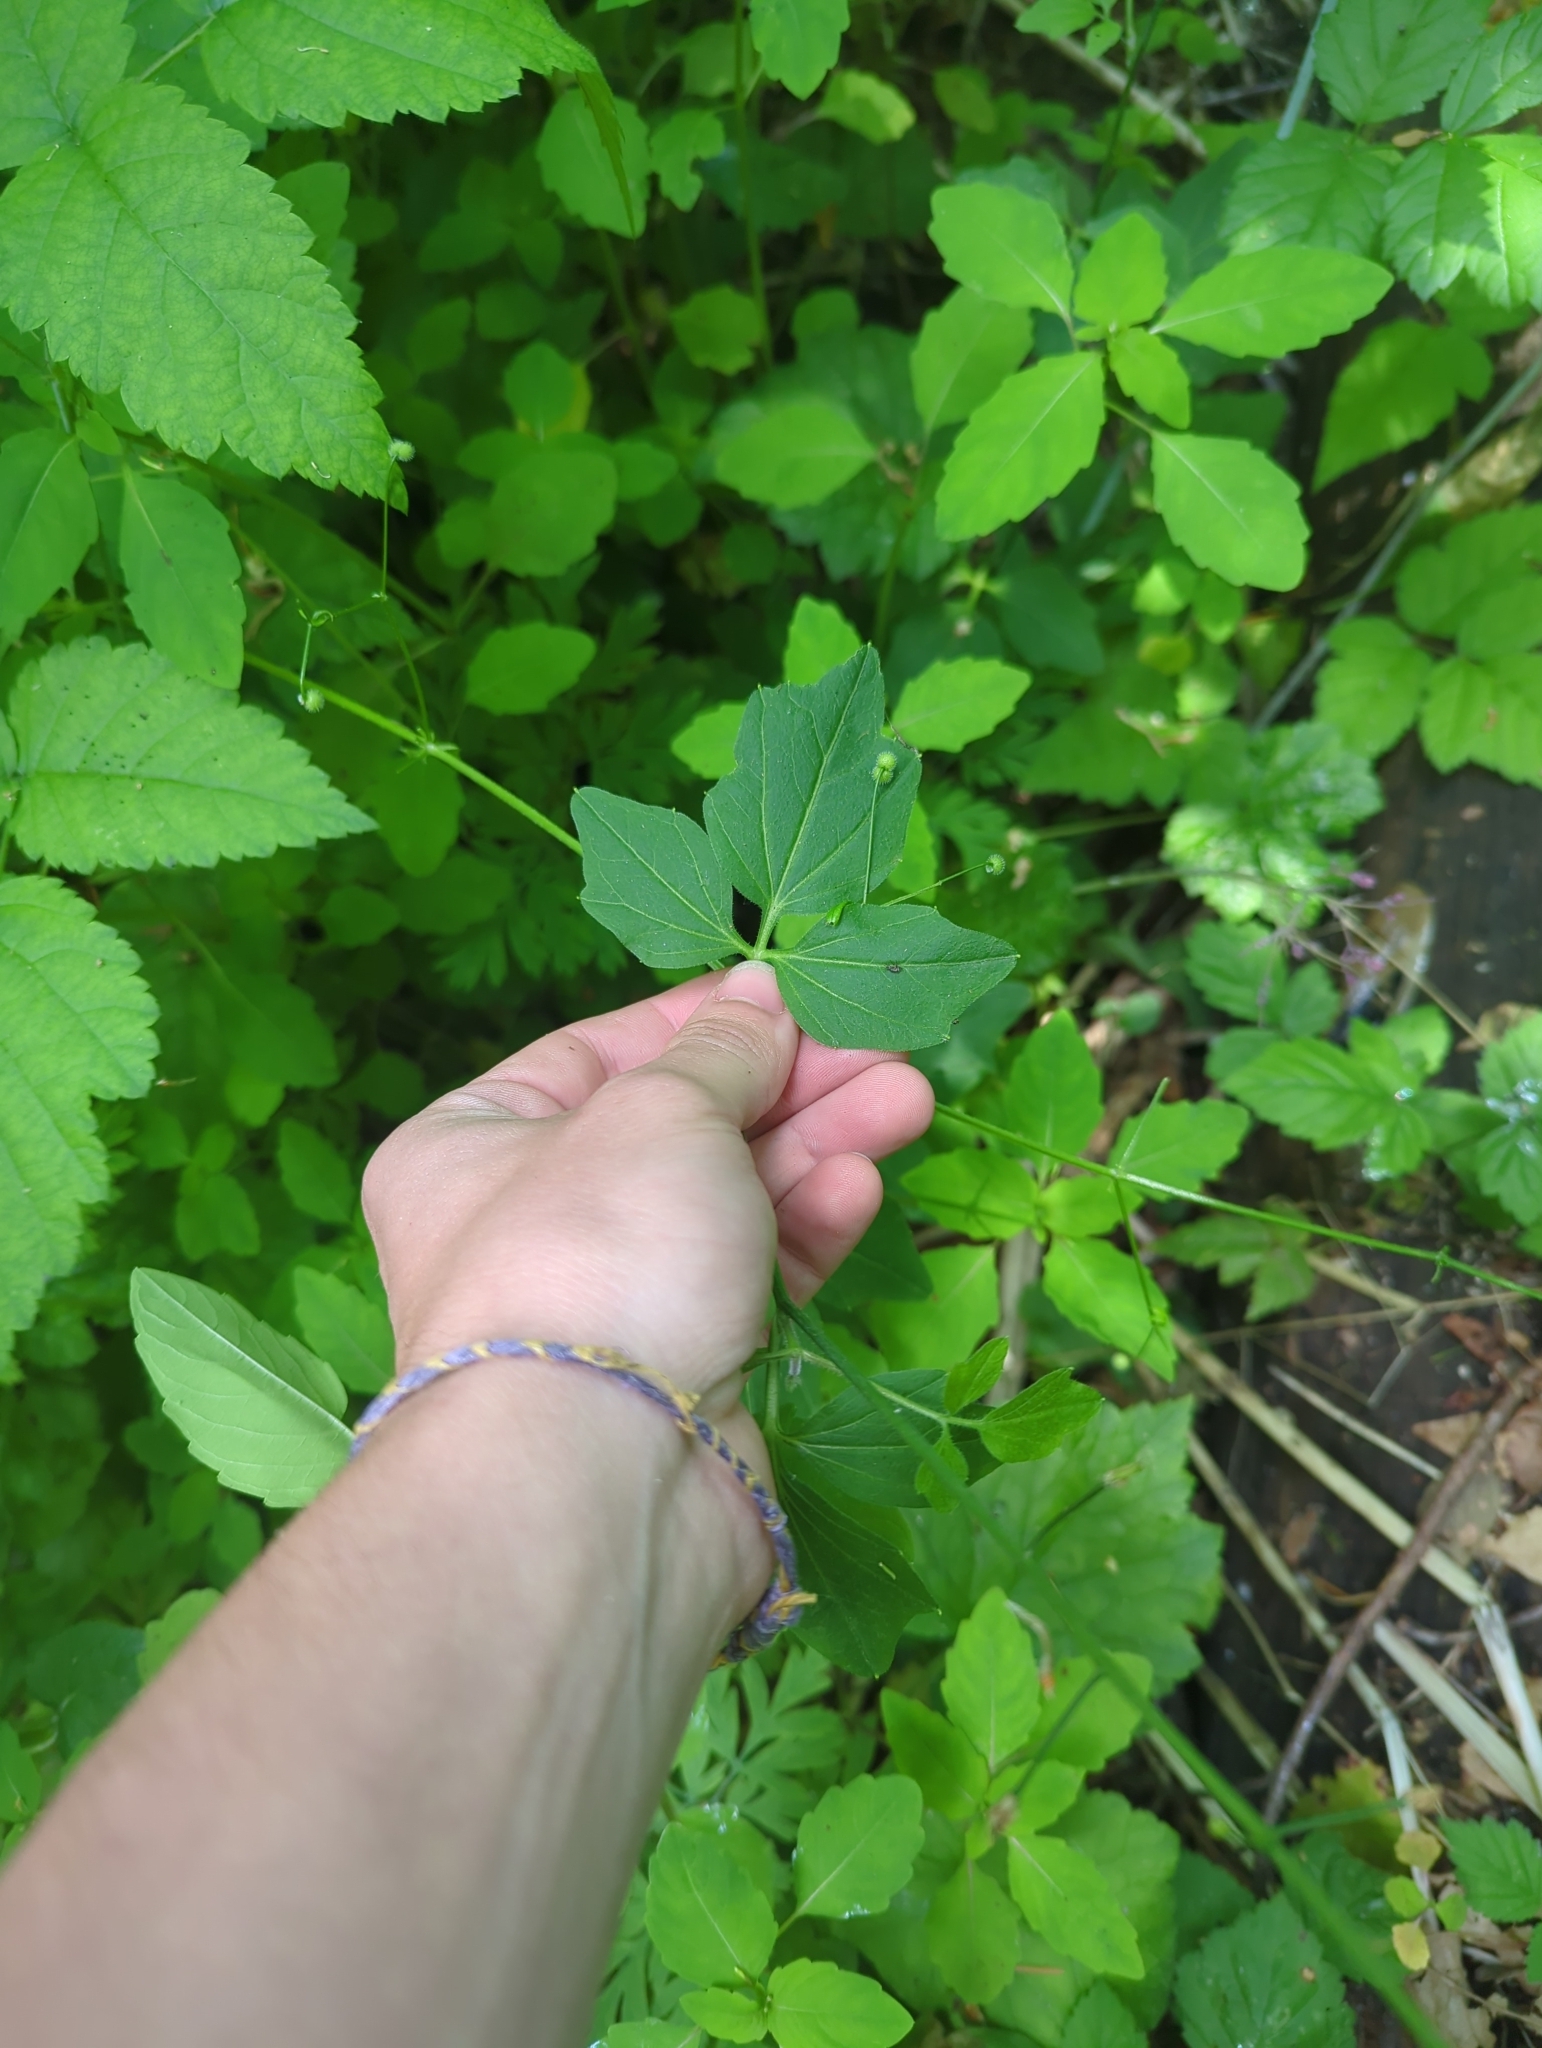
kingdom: Plantae
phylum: Tracheophyta
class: Magnoliopsida
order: Brassicales
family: Brassicaceae
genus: Cardamine
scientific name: Cardamine angulata
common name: Angled bittercress
